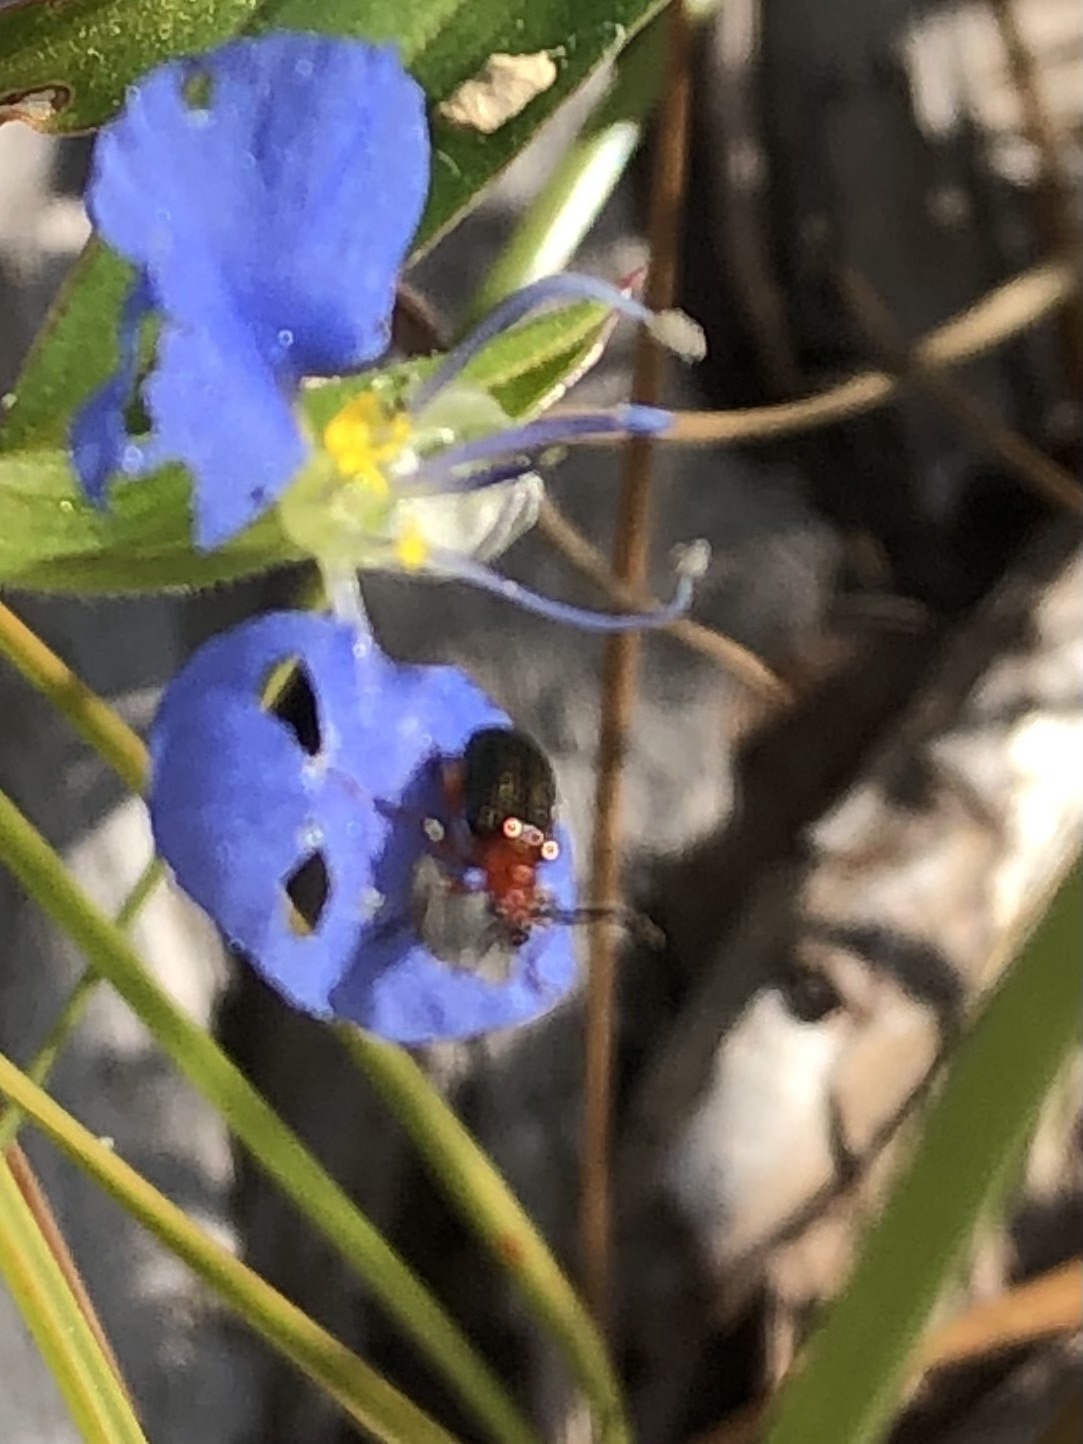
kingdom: Animalia
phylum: Arthropoda
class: Insecta
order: Coleoptera
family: Chrysomelidae
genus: Oulema
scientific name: Oulema melanopus
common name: Cereal leaf beetle
